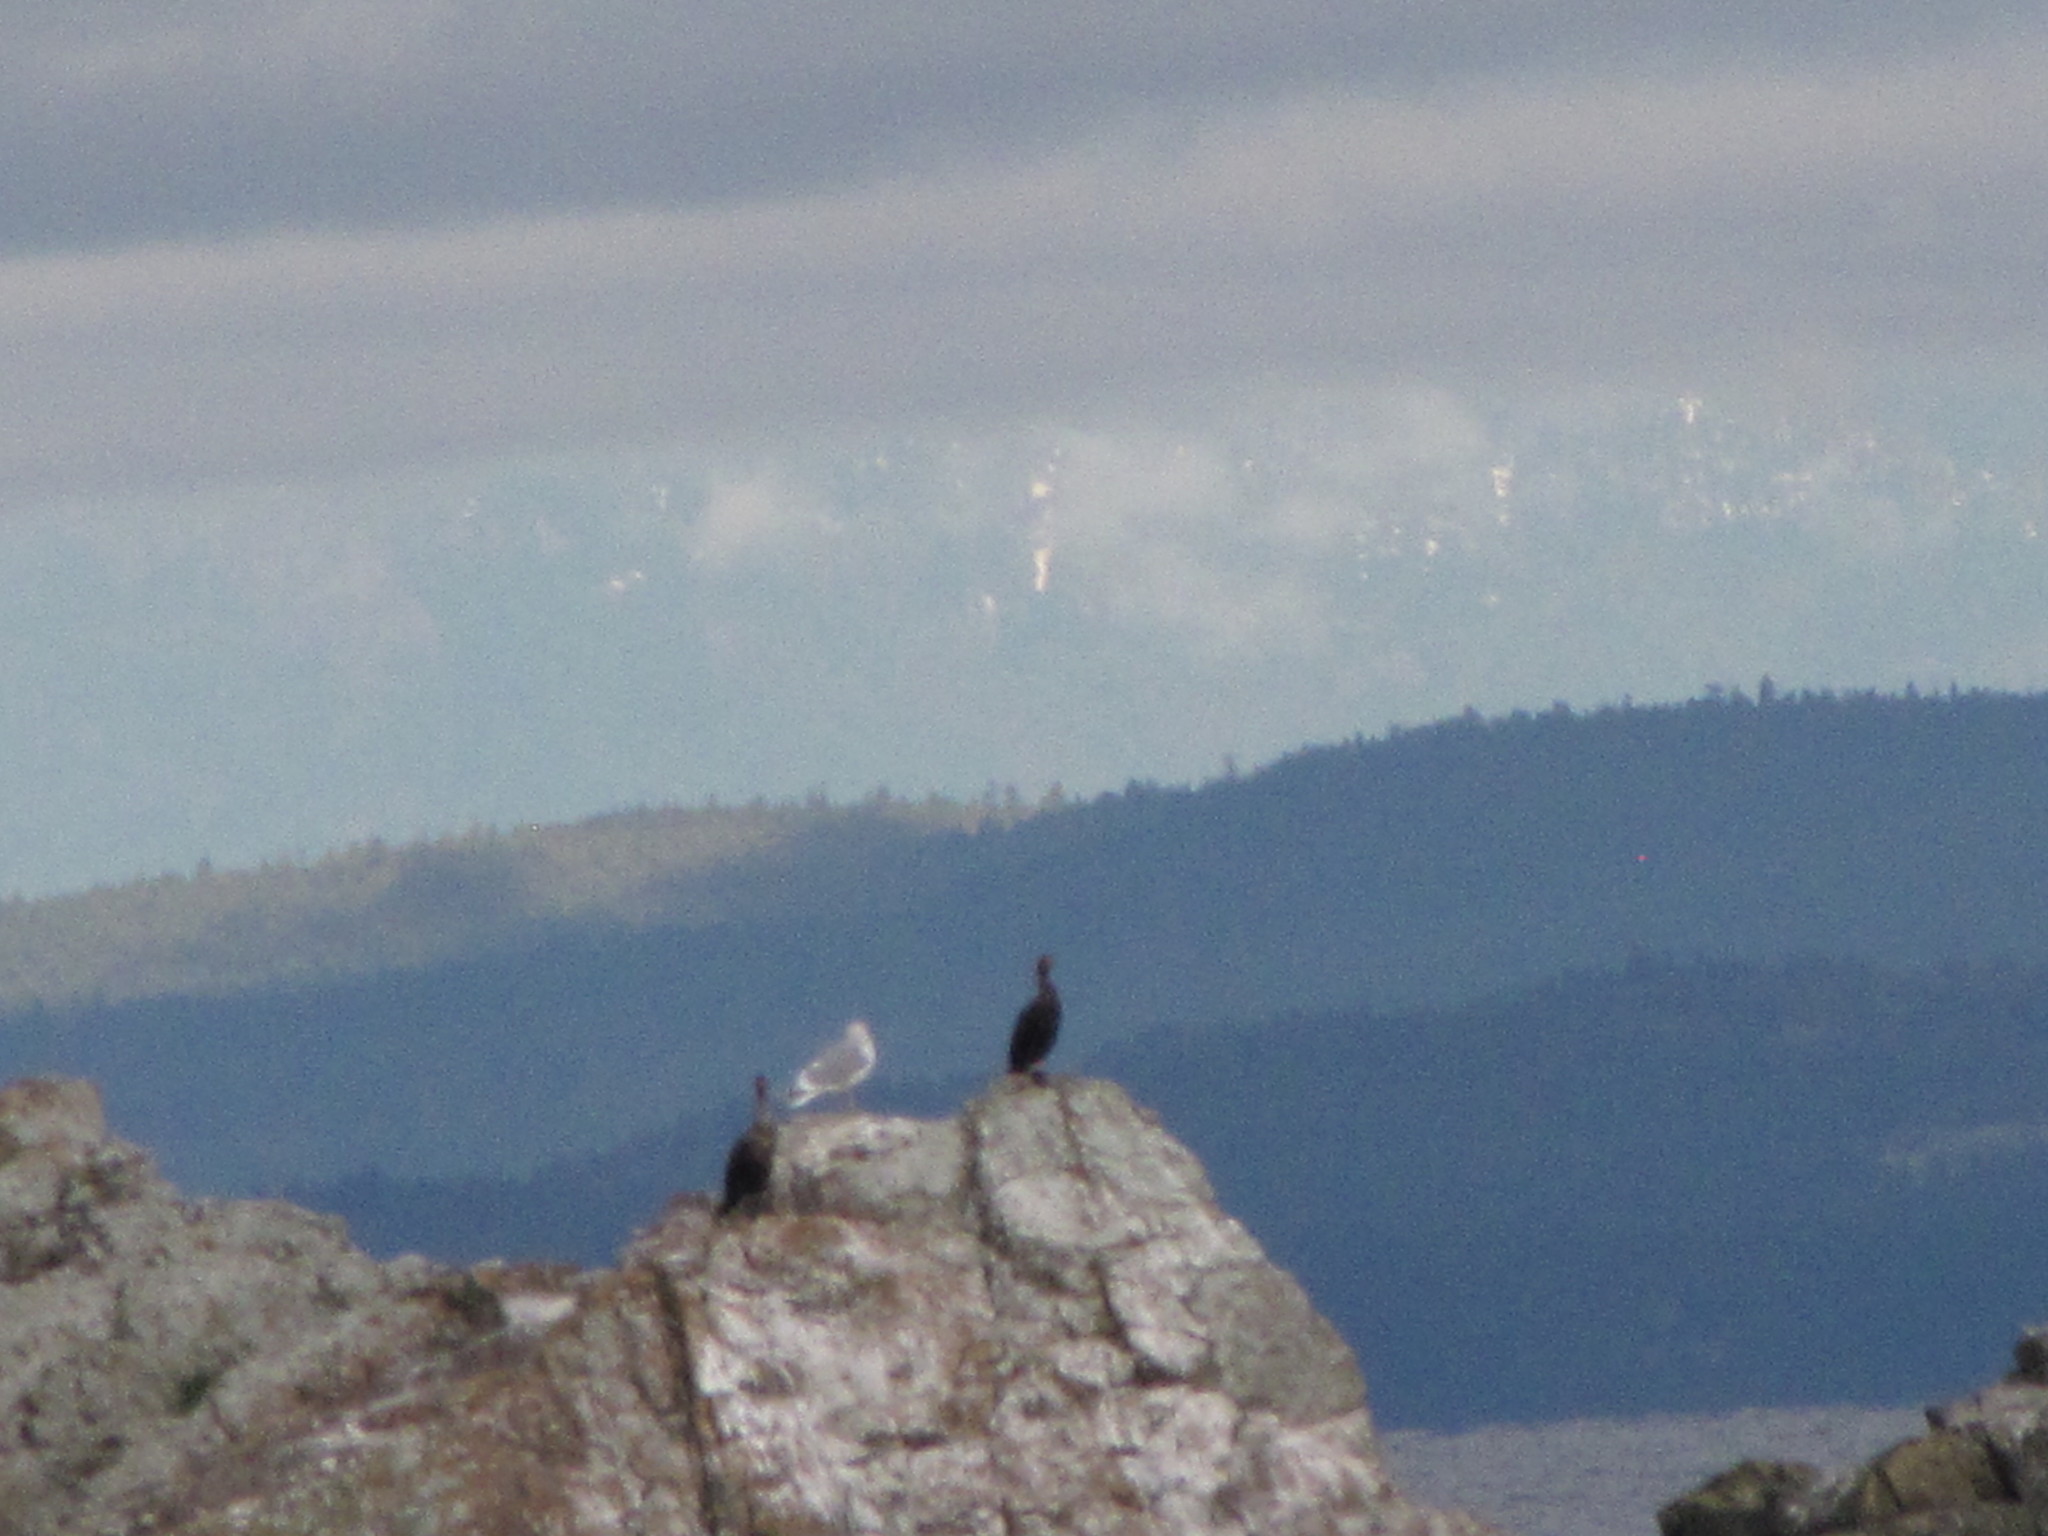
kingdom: Animalia
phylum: Chordata
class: Aves
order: Suliformes
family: Phalacrocoracidae
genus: Phalacrocorax
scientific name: Phalacrocorax auritus
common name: Double-crested cormorant
